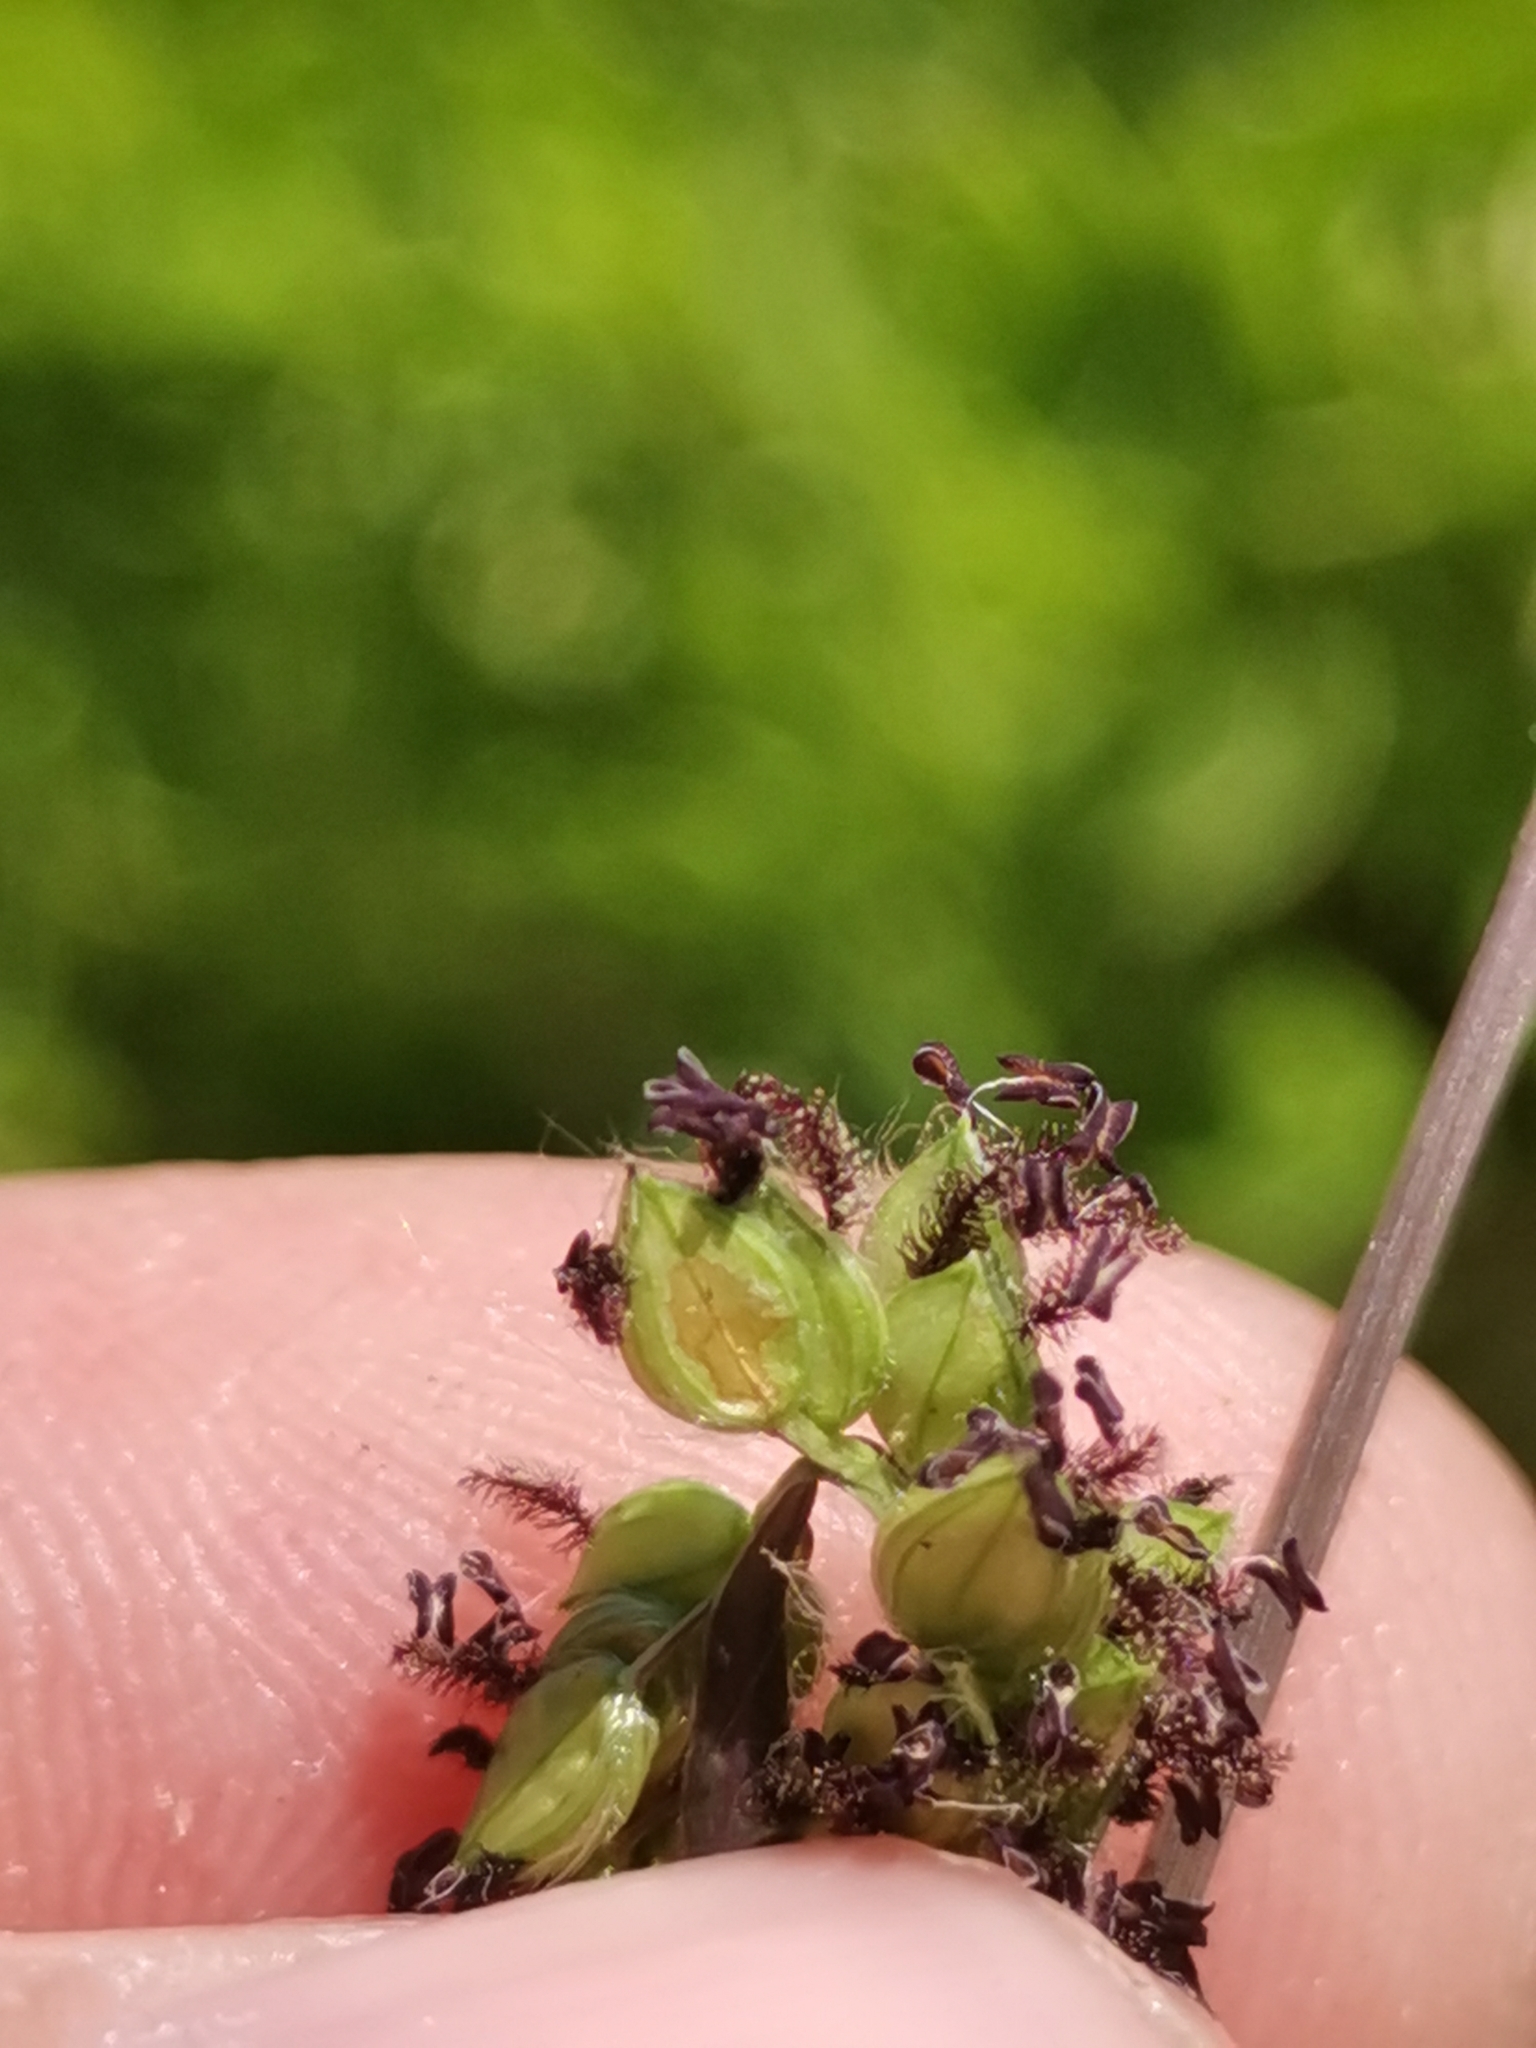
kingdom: Plantae
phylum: Tracheophyta
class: Liliopsida
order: Poales
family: Poaceae
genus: Paspalum
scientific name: Paspalum dilatatum
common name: Dallisgrass
